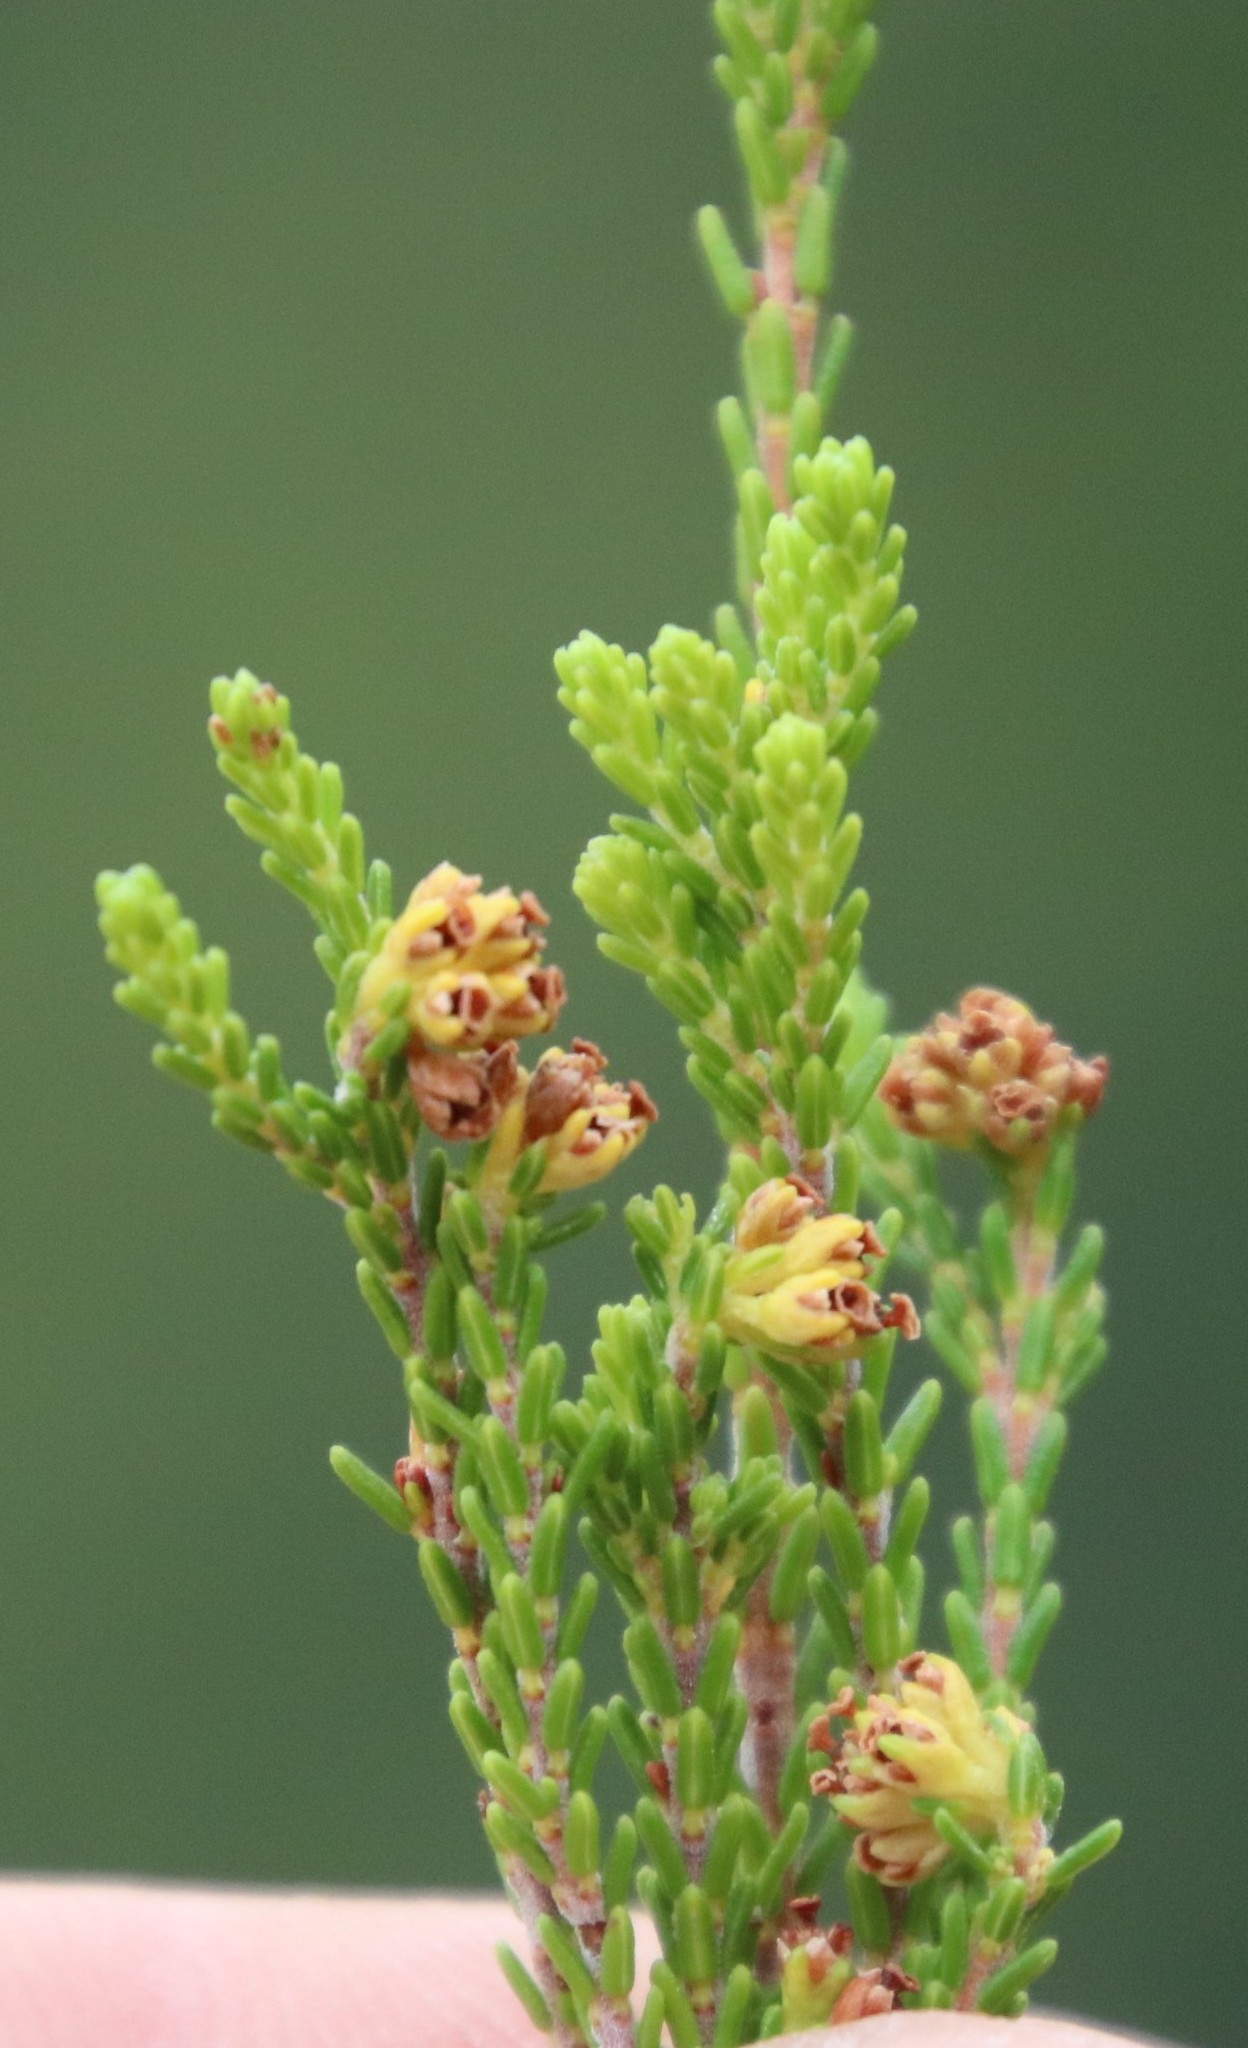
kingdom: Plantae
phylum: Tracheophyta
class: Magnoliopsida
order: Ericales
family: Ericaceae
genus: Erica
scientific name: Erica tristis
